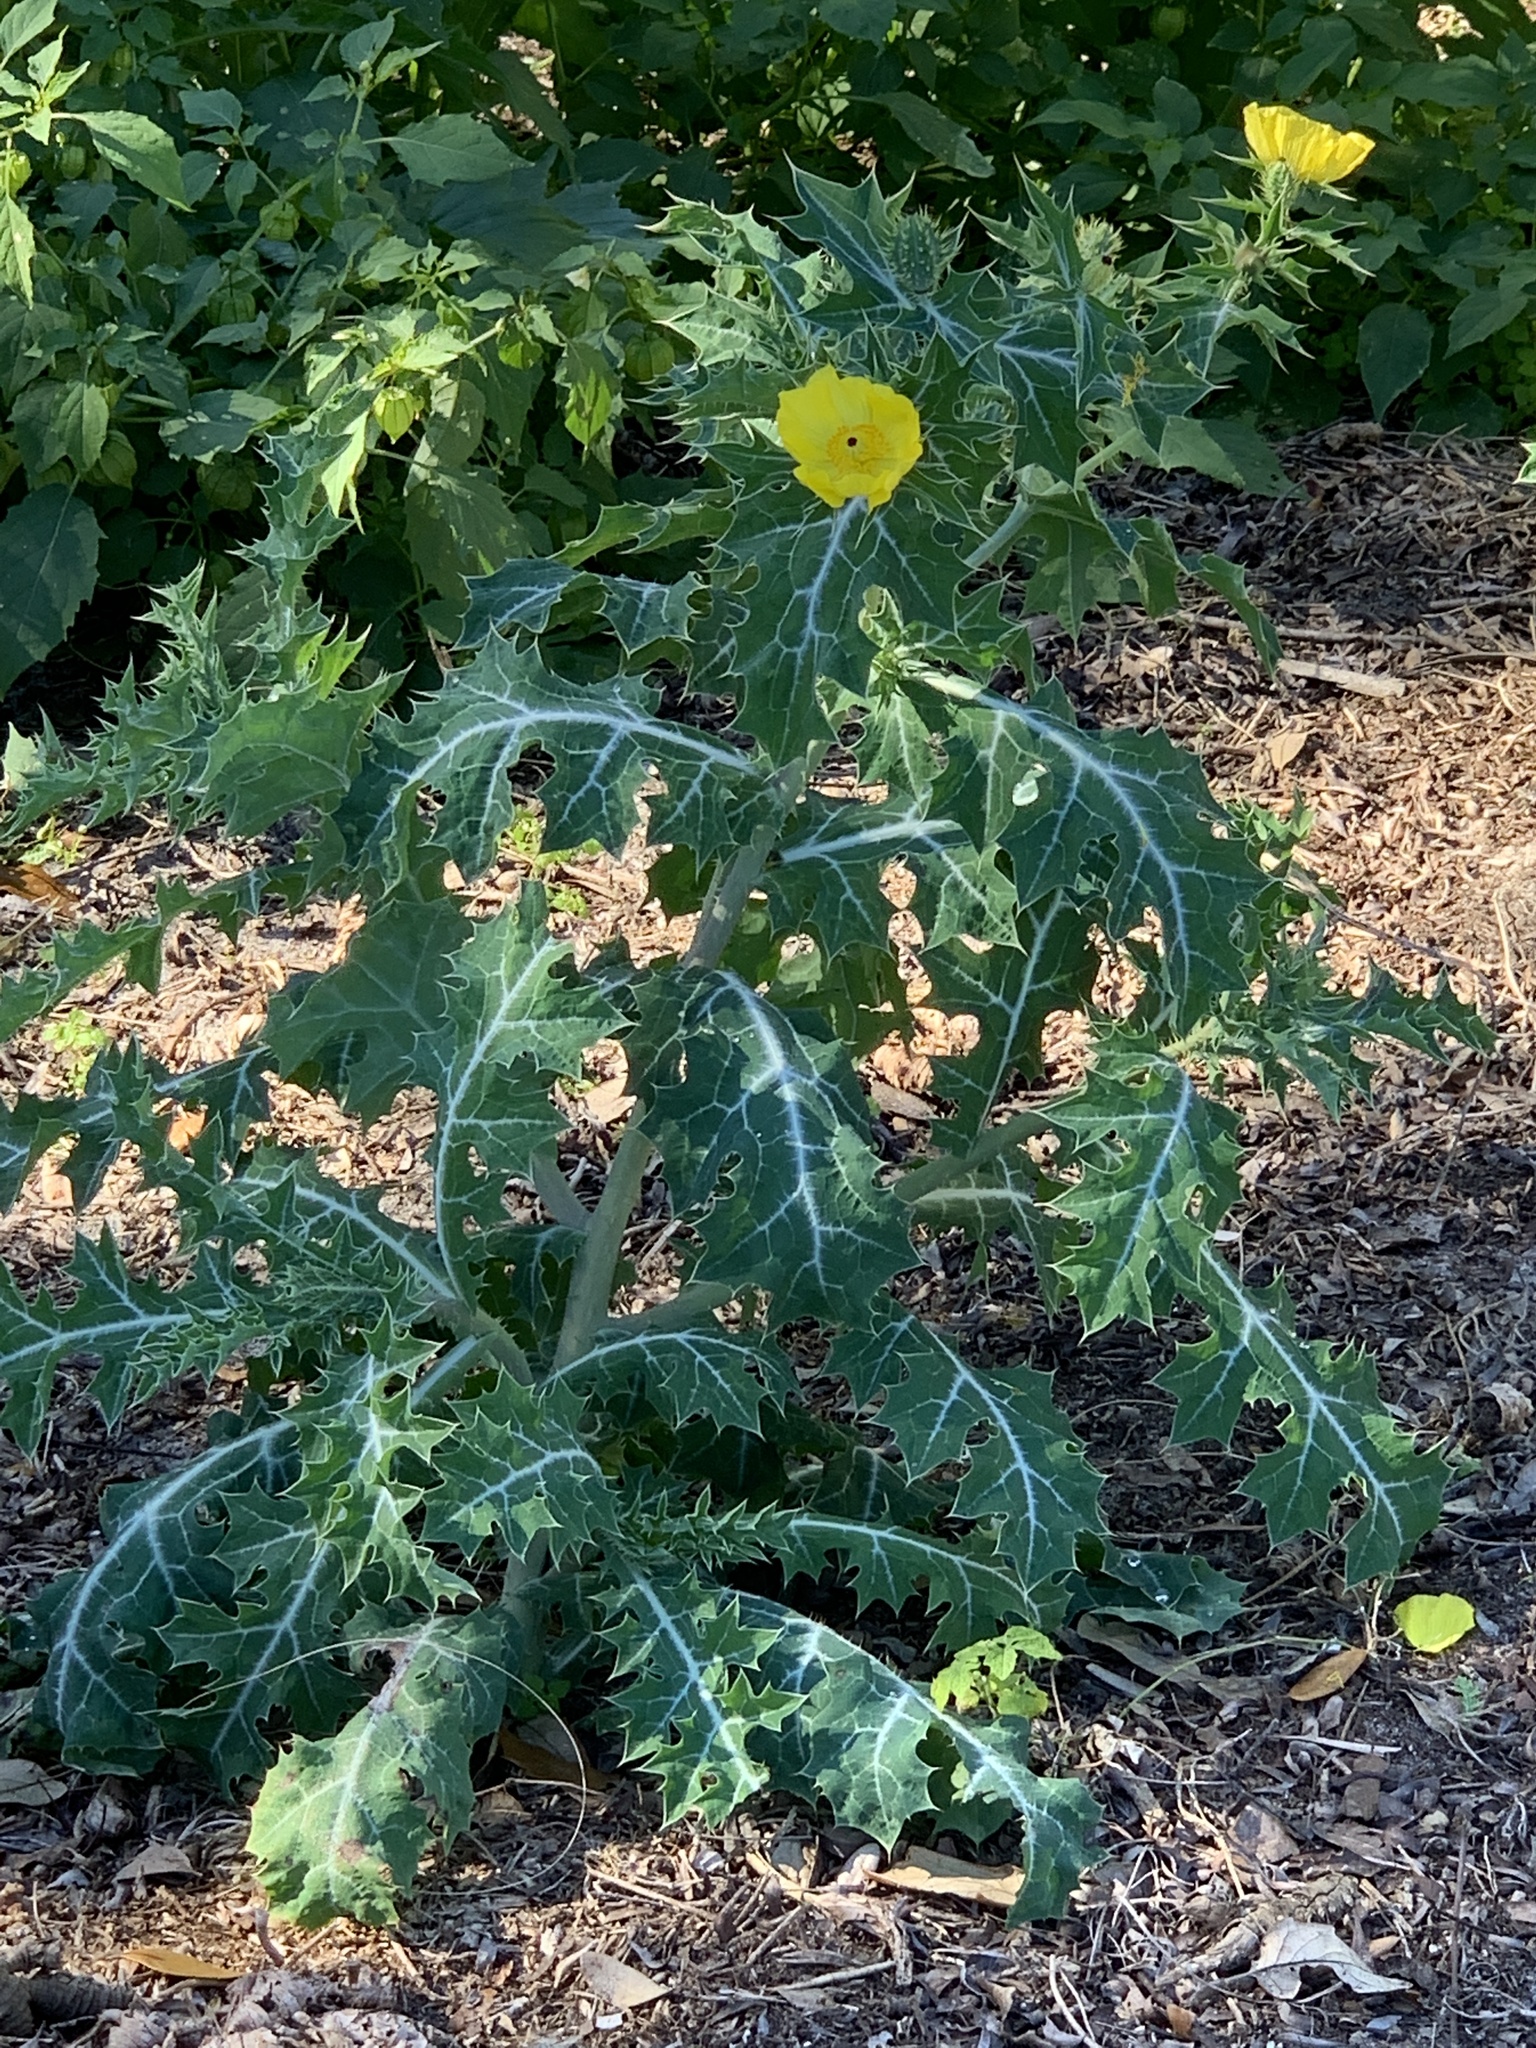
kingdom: Plantae
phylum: Tracheophyta
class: Magnoliopsida
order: Ranunculales
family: Papaveraceae
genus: Argemone
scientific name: Argemone mexicana
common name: Mexican poppy
